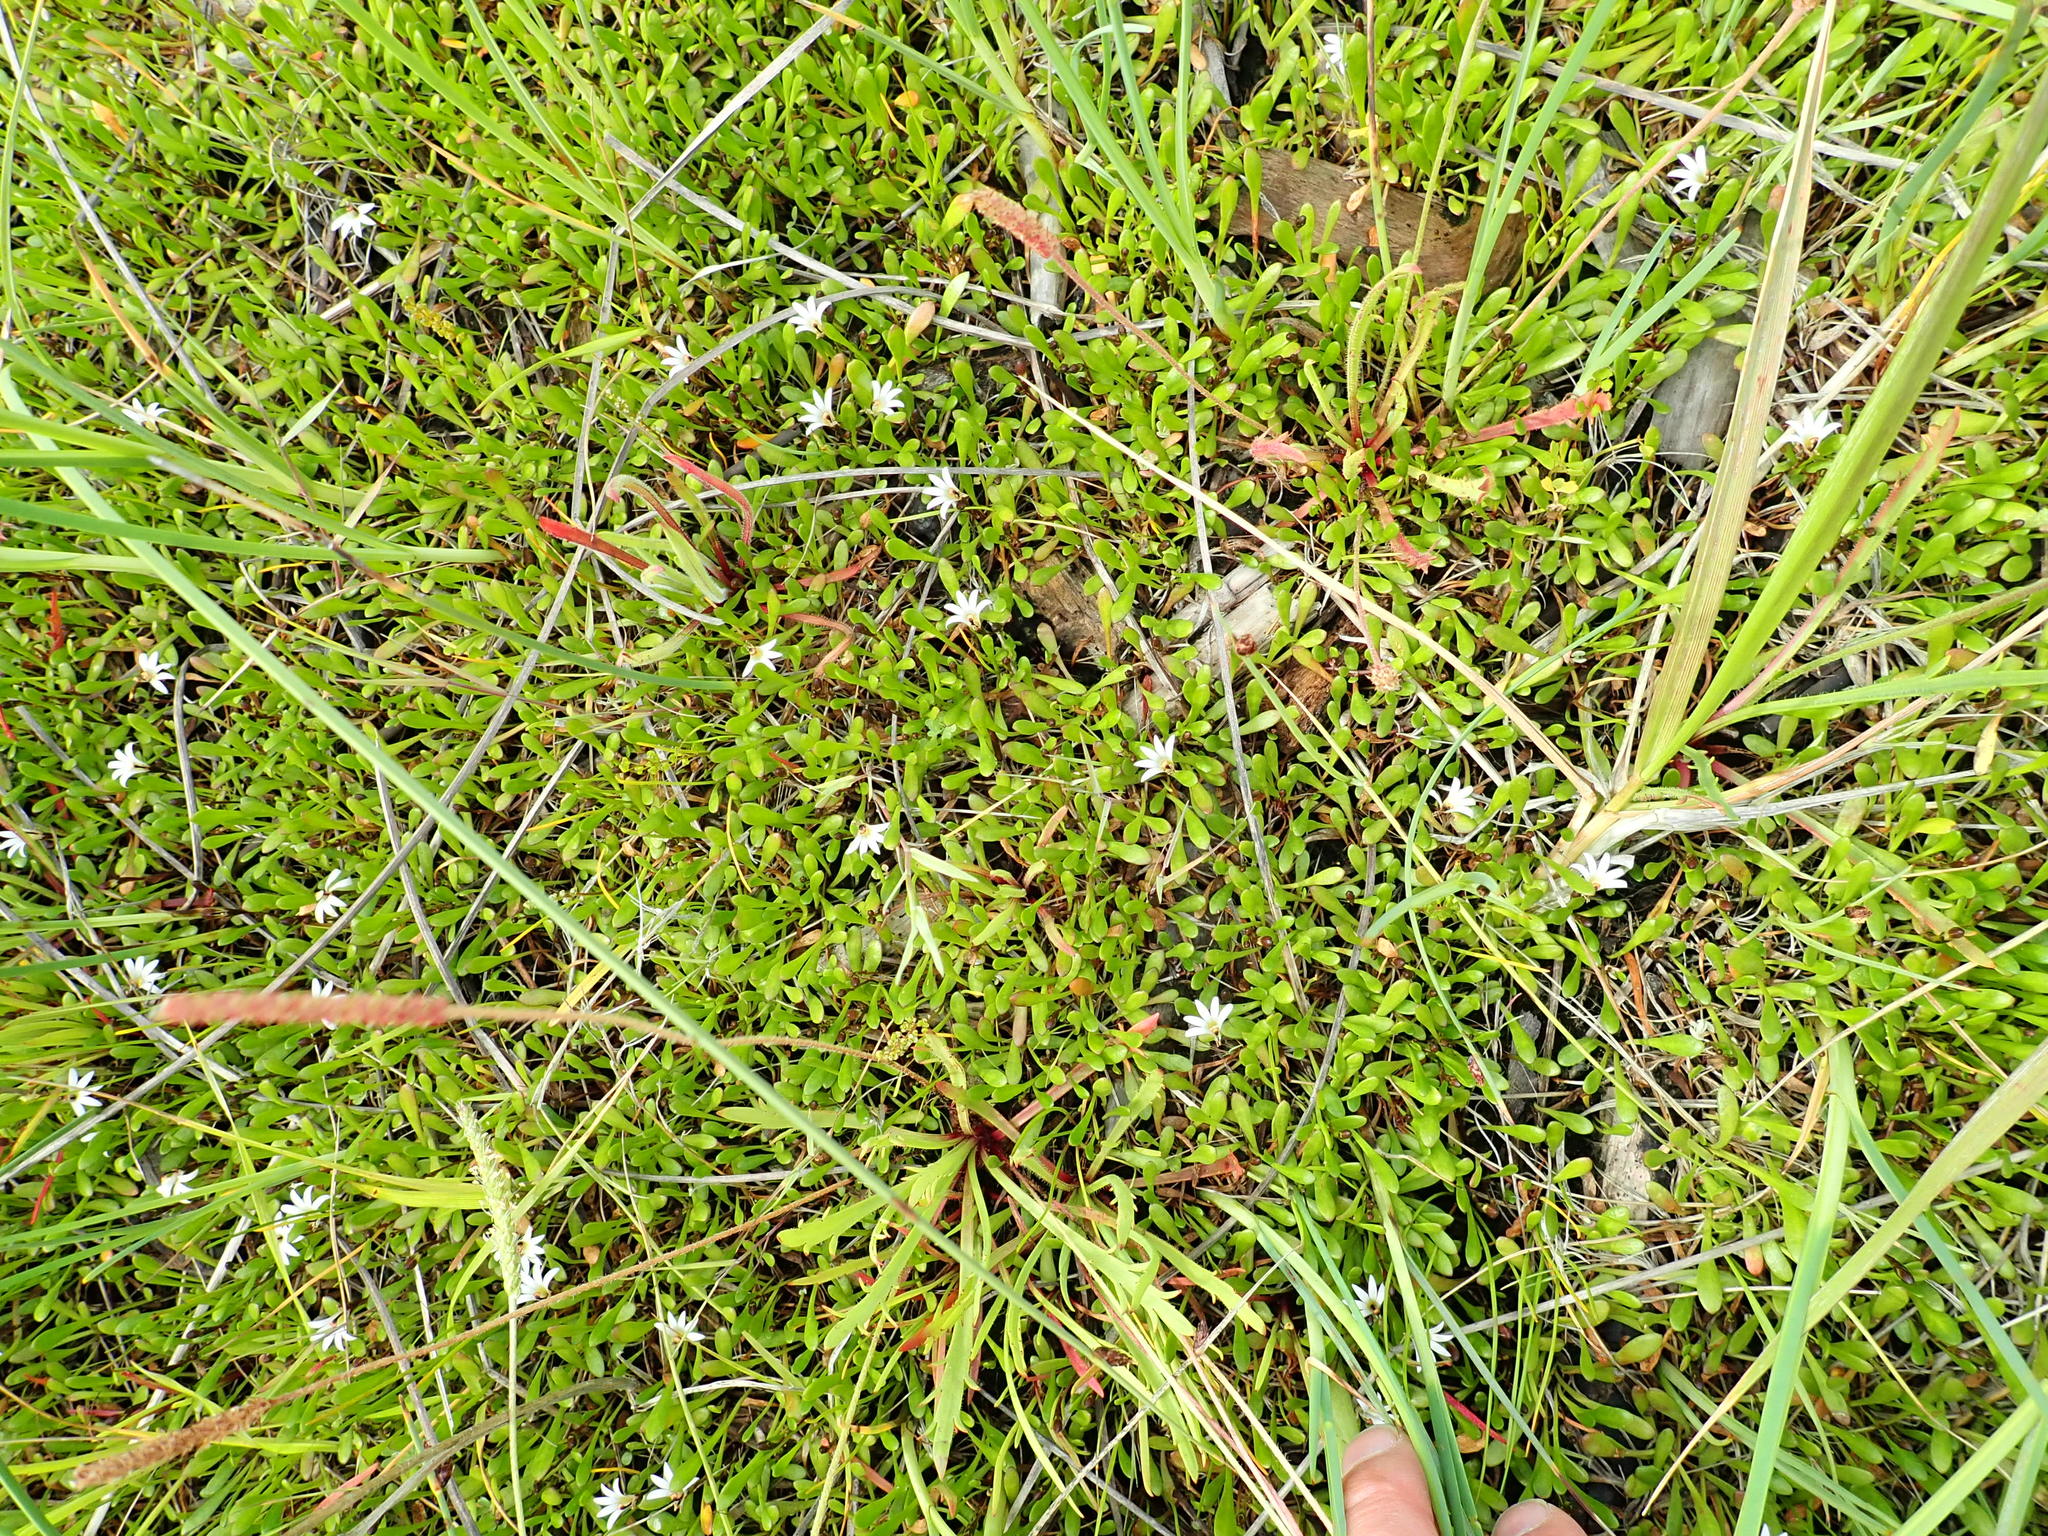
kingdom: Plantae
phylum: Tracheophyta
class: Magnoliopsida
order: Asterales
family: Goodeniaceae
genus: Goodenia
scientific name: Goodenia radicans
